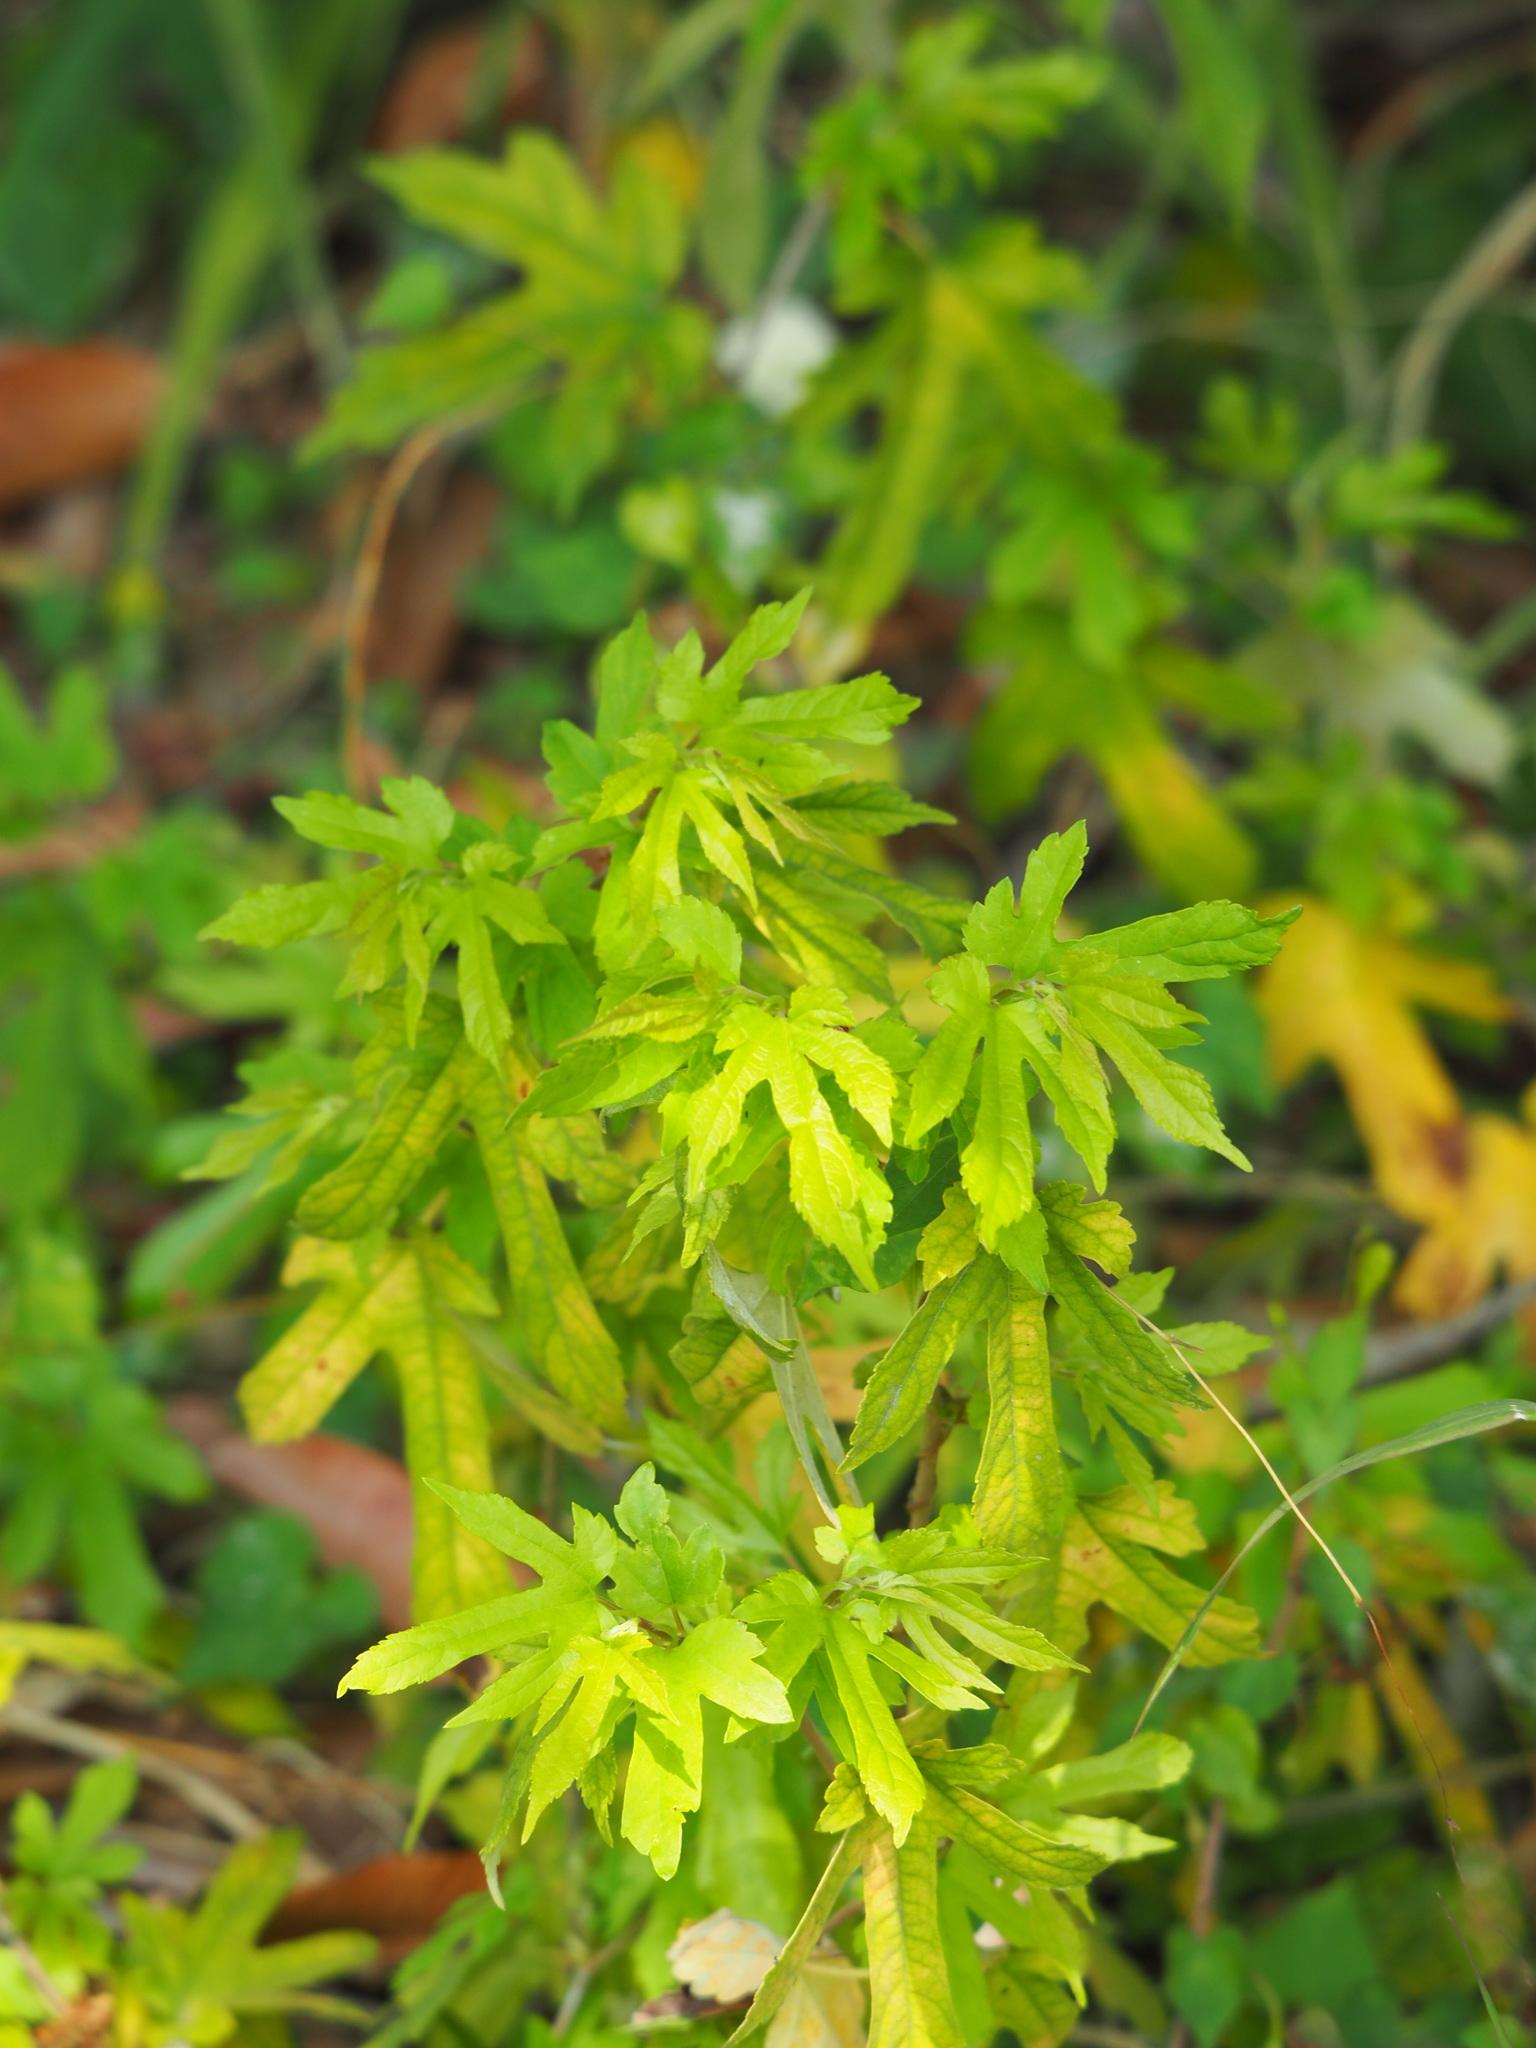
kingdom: Plantae
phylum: Tracheophyta
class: Magnoliopsida
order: Rosales
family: Moraceae
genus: Morus
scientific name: Morus indica
